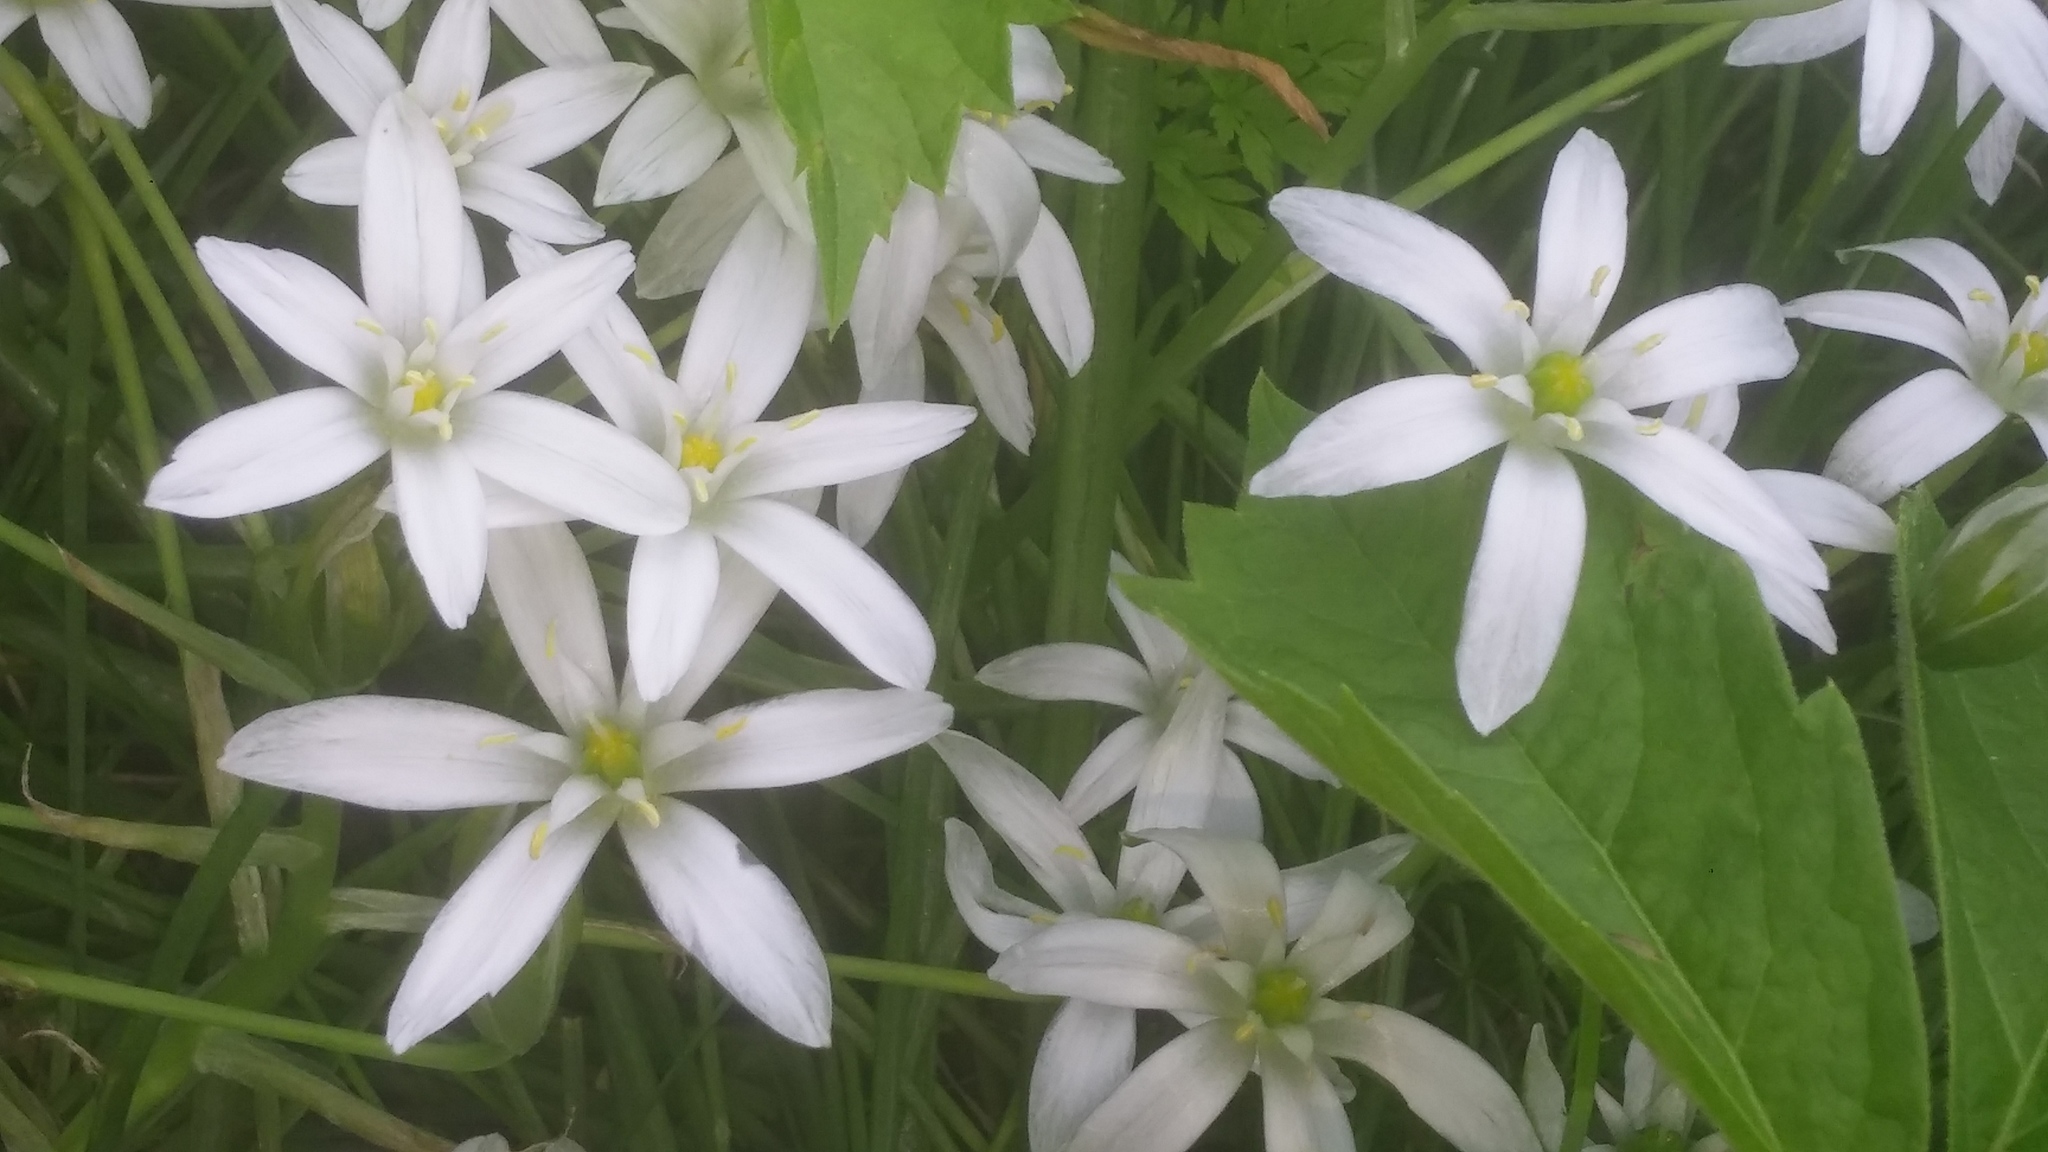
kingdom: Plantae
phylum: Tracheophyta
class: Liliopsida
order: Asparagales
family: Asparagaceae
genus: Ornithogalum
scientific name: Ornithogalum umbellatum
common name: Garden star-of-bethlehem
